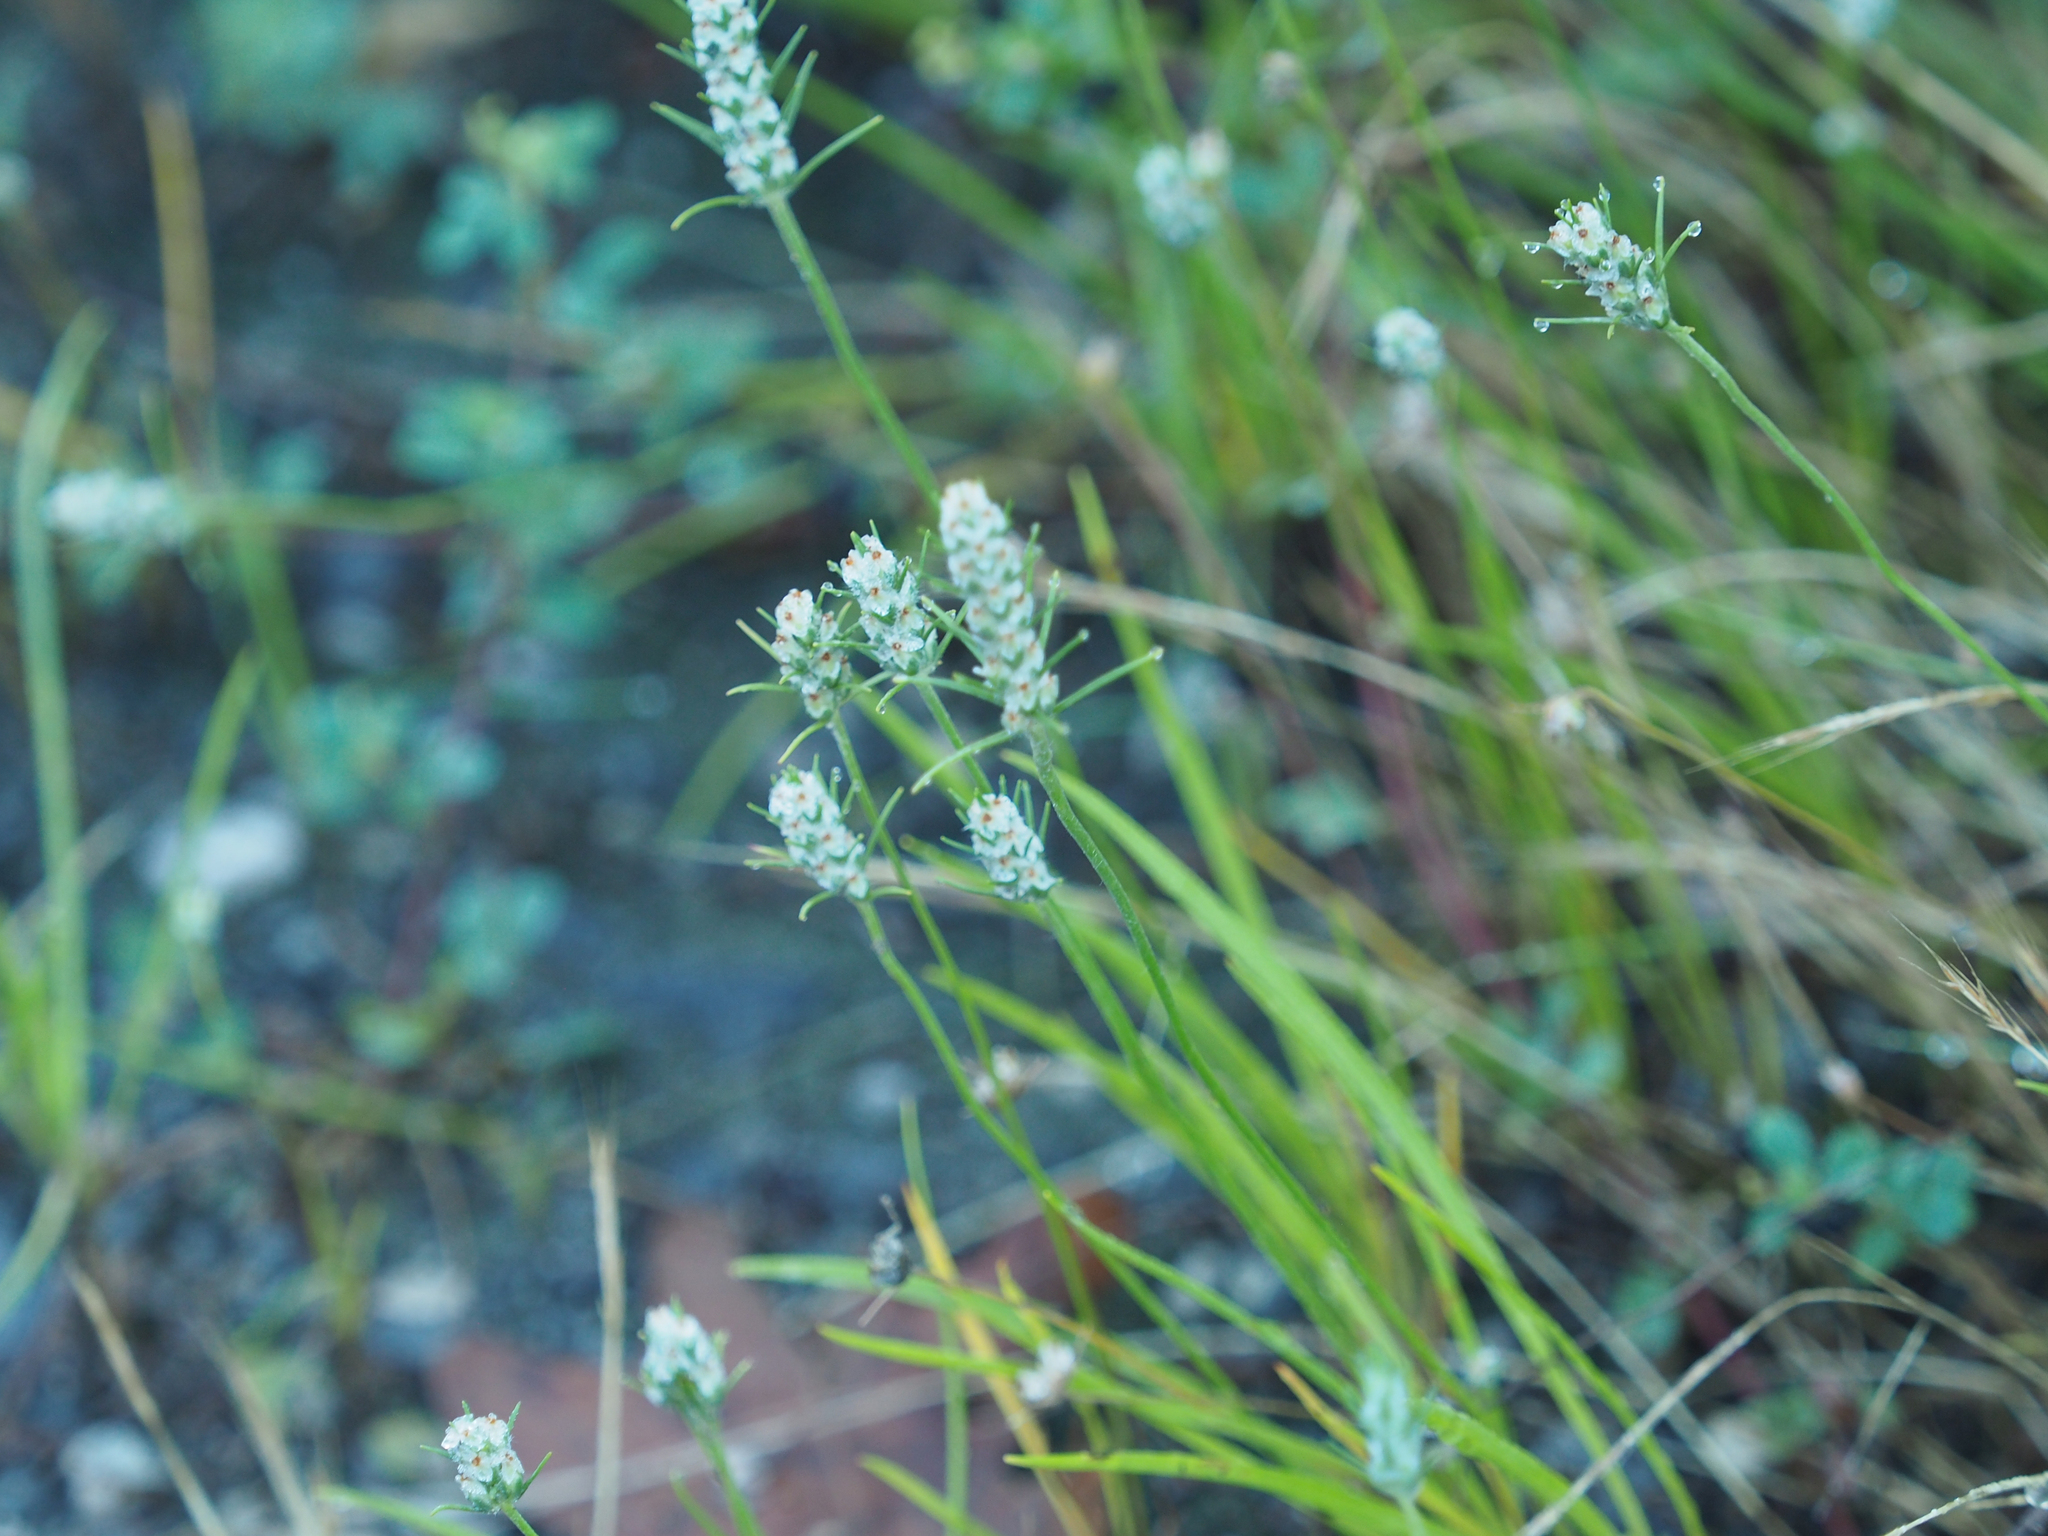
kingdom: Plantae
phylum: Tracheophyta
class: Magnoliopsida
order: Lamiales
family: Plantaginaceae
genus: Plantago
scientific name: Plantago aristata
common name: Bracted plantain
